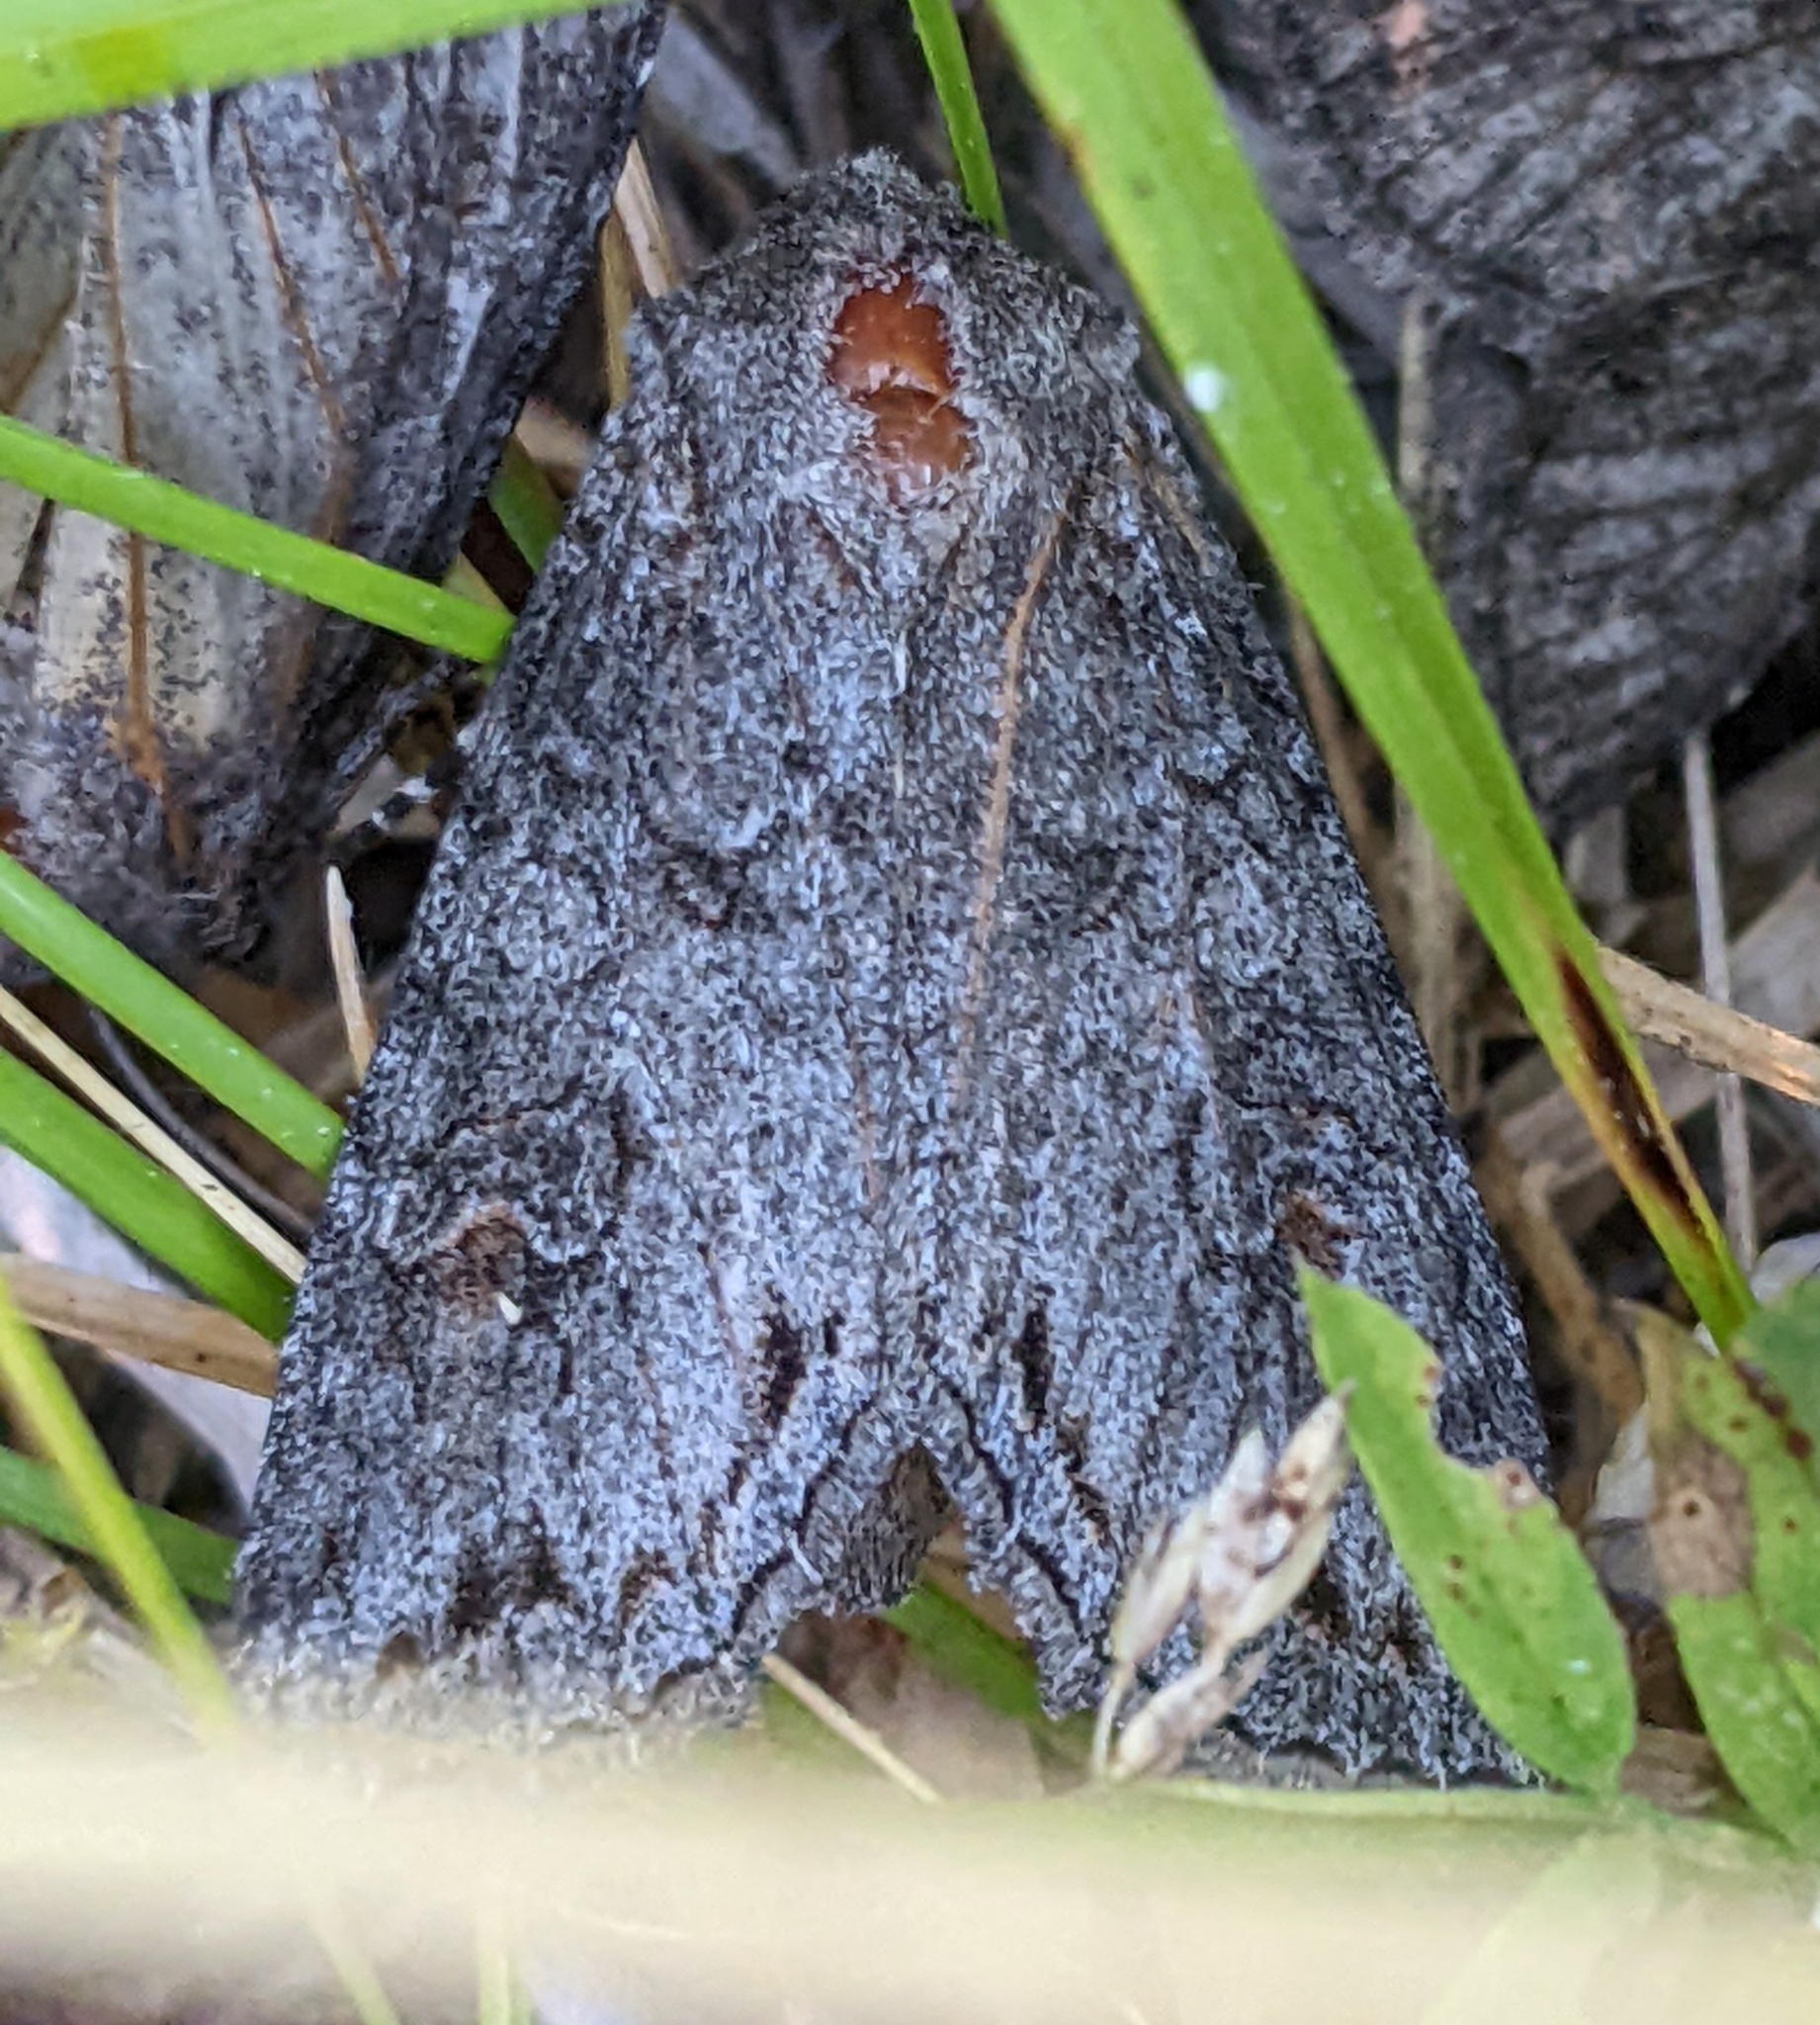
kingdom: Animalia
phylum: Arthropoda
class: Insecta
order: Lepidoptera
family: Noctuidae
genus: Polia
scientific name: Polia purpurissata
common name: Purple arches moth
